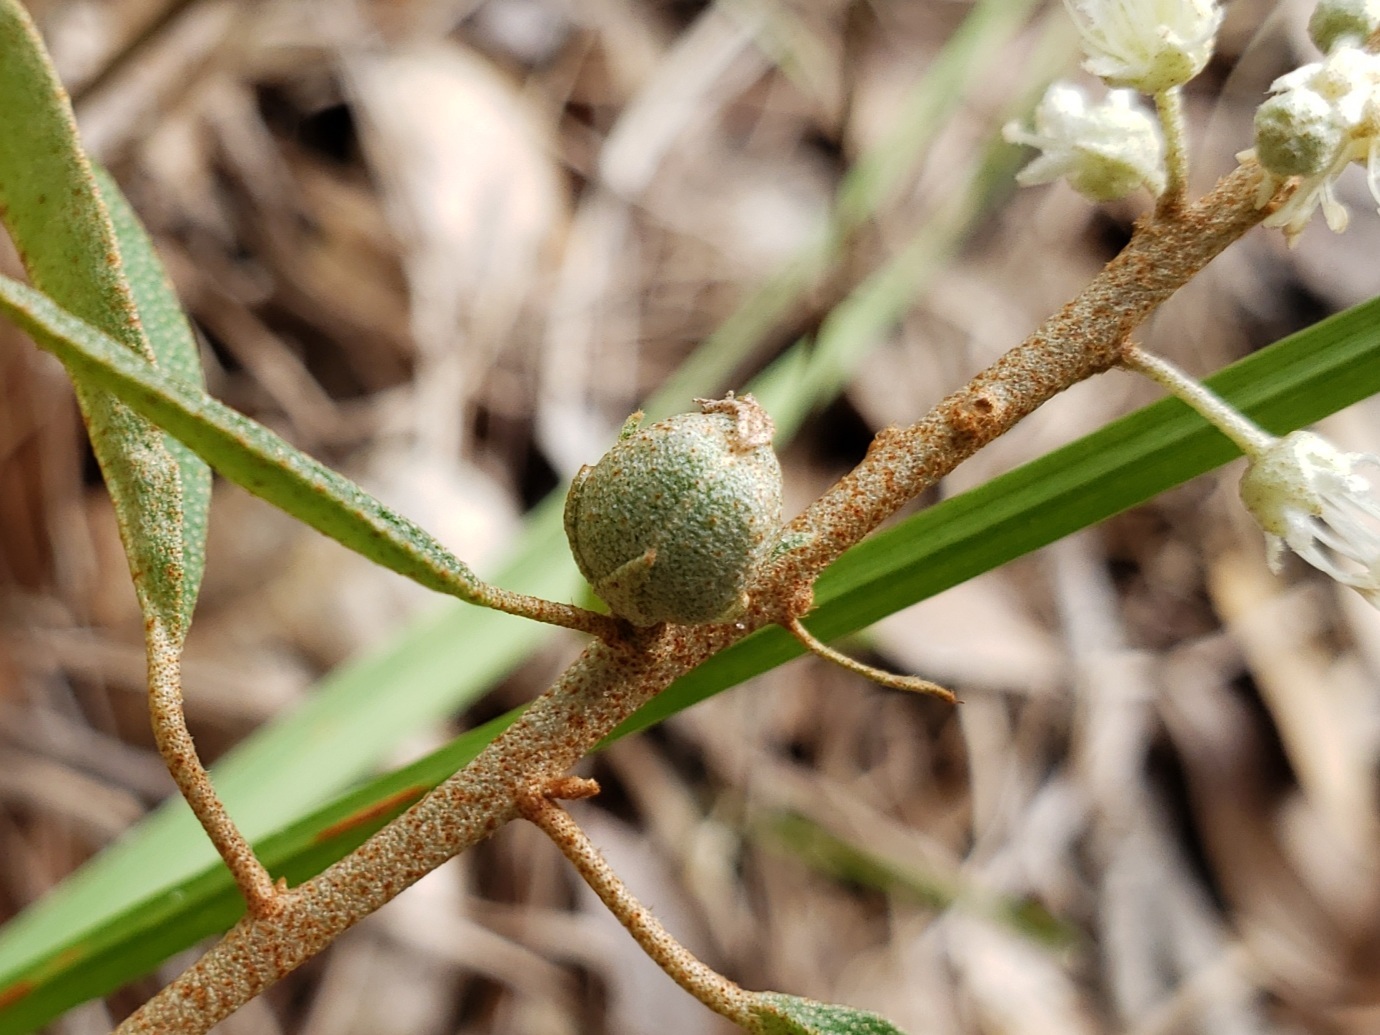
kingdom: Plantae
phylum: Tracheophyta
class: Magnoliopsida
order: Malpighiales
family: Euphorbiaceae
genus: Croton
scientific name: Croton argyranthemus
